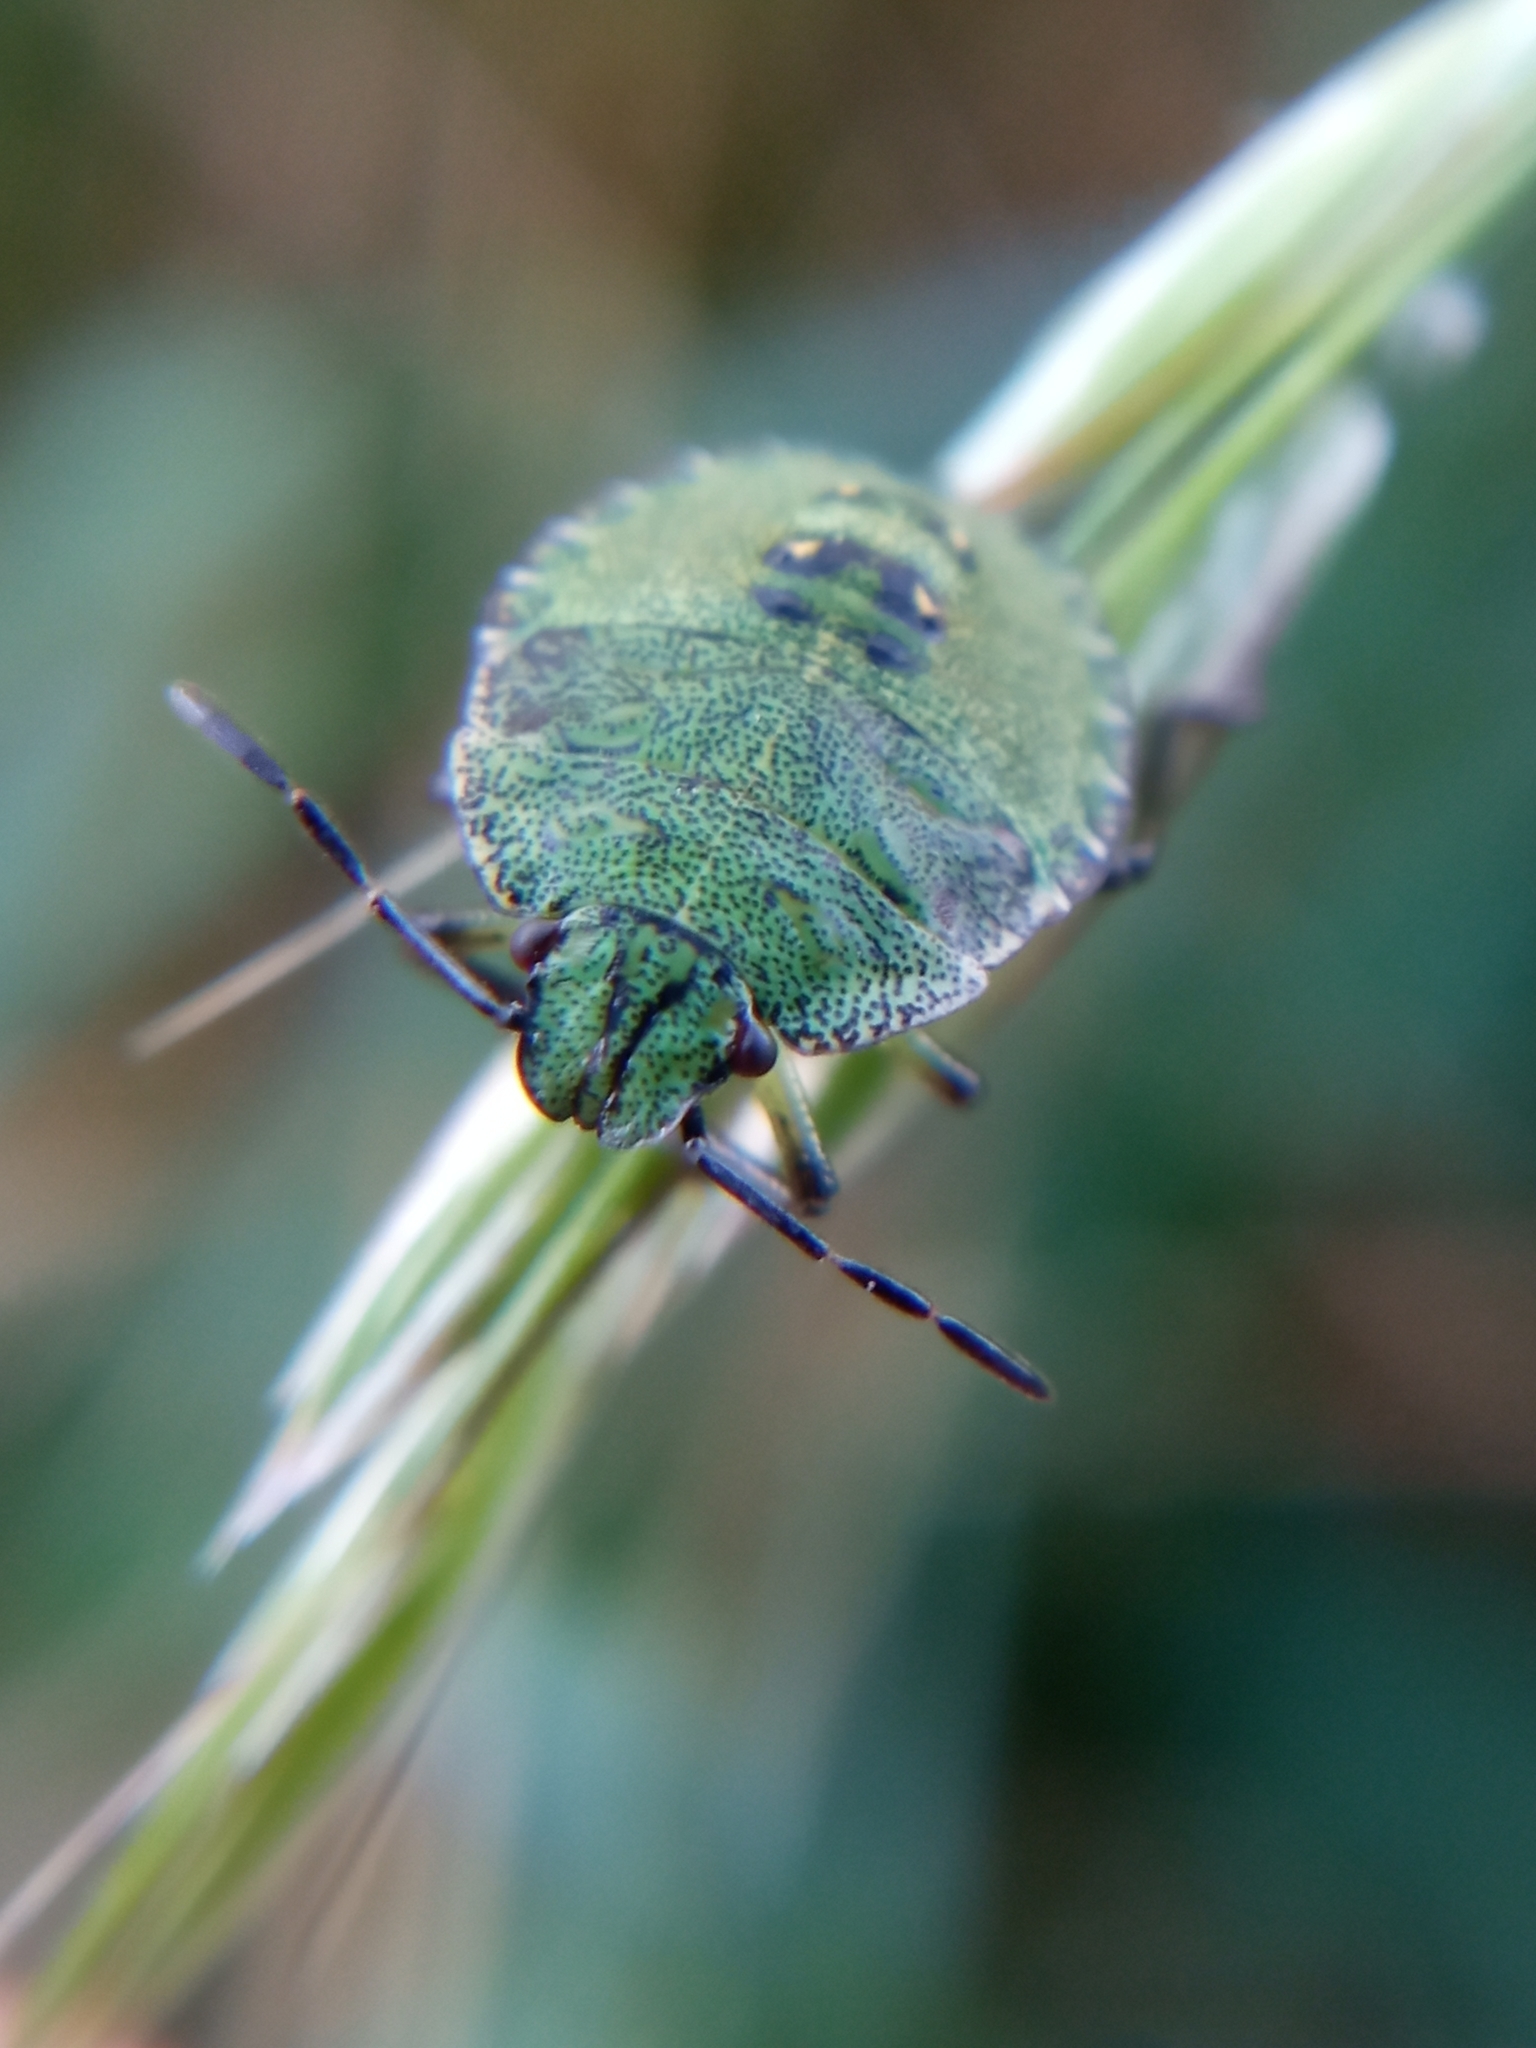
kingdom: Animalia
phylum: Arthropoda
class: Insecta
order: Hemiptera
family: Pentatomidae
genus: Palomena
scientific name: Palomena prasina
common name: Green shieldbug
